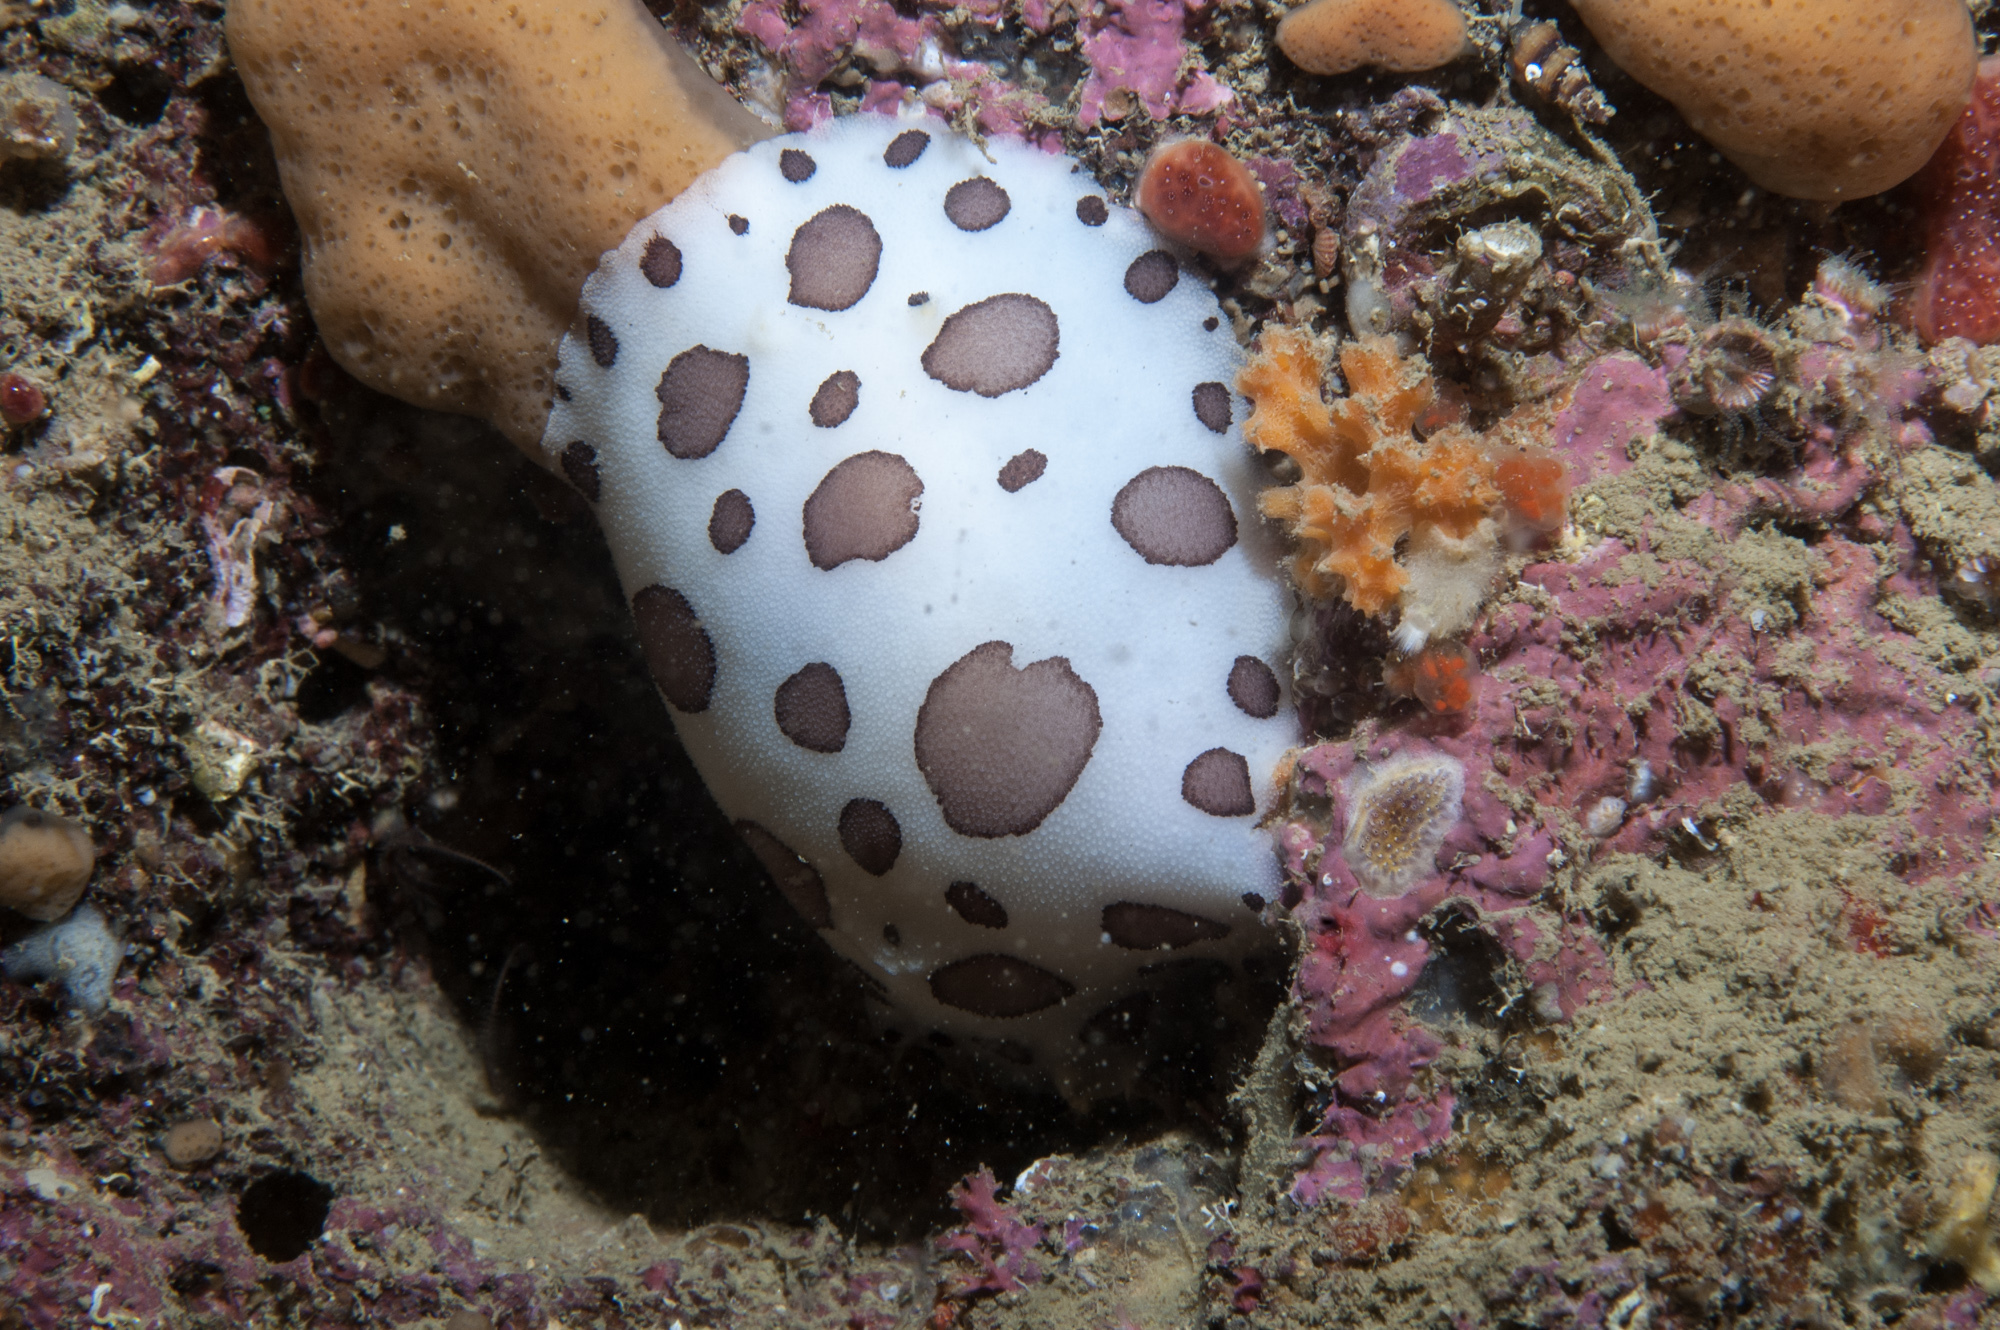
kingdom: Animalia
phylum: Mollusca
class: Gastropoda
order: Nudibranchia
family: Discodorididae
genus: Peltodoris
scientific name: Peltodoris atromaculata
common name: Swiss cow nudibranch
